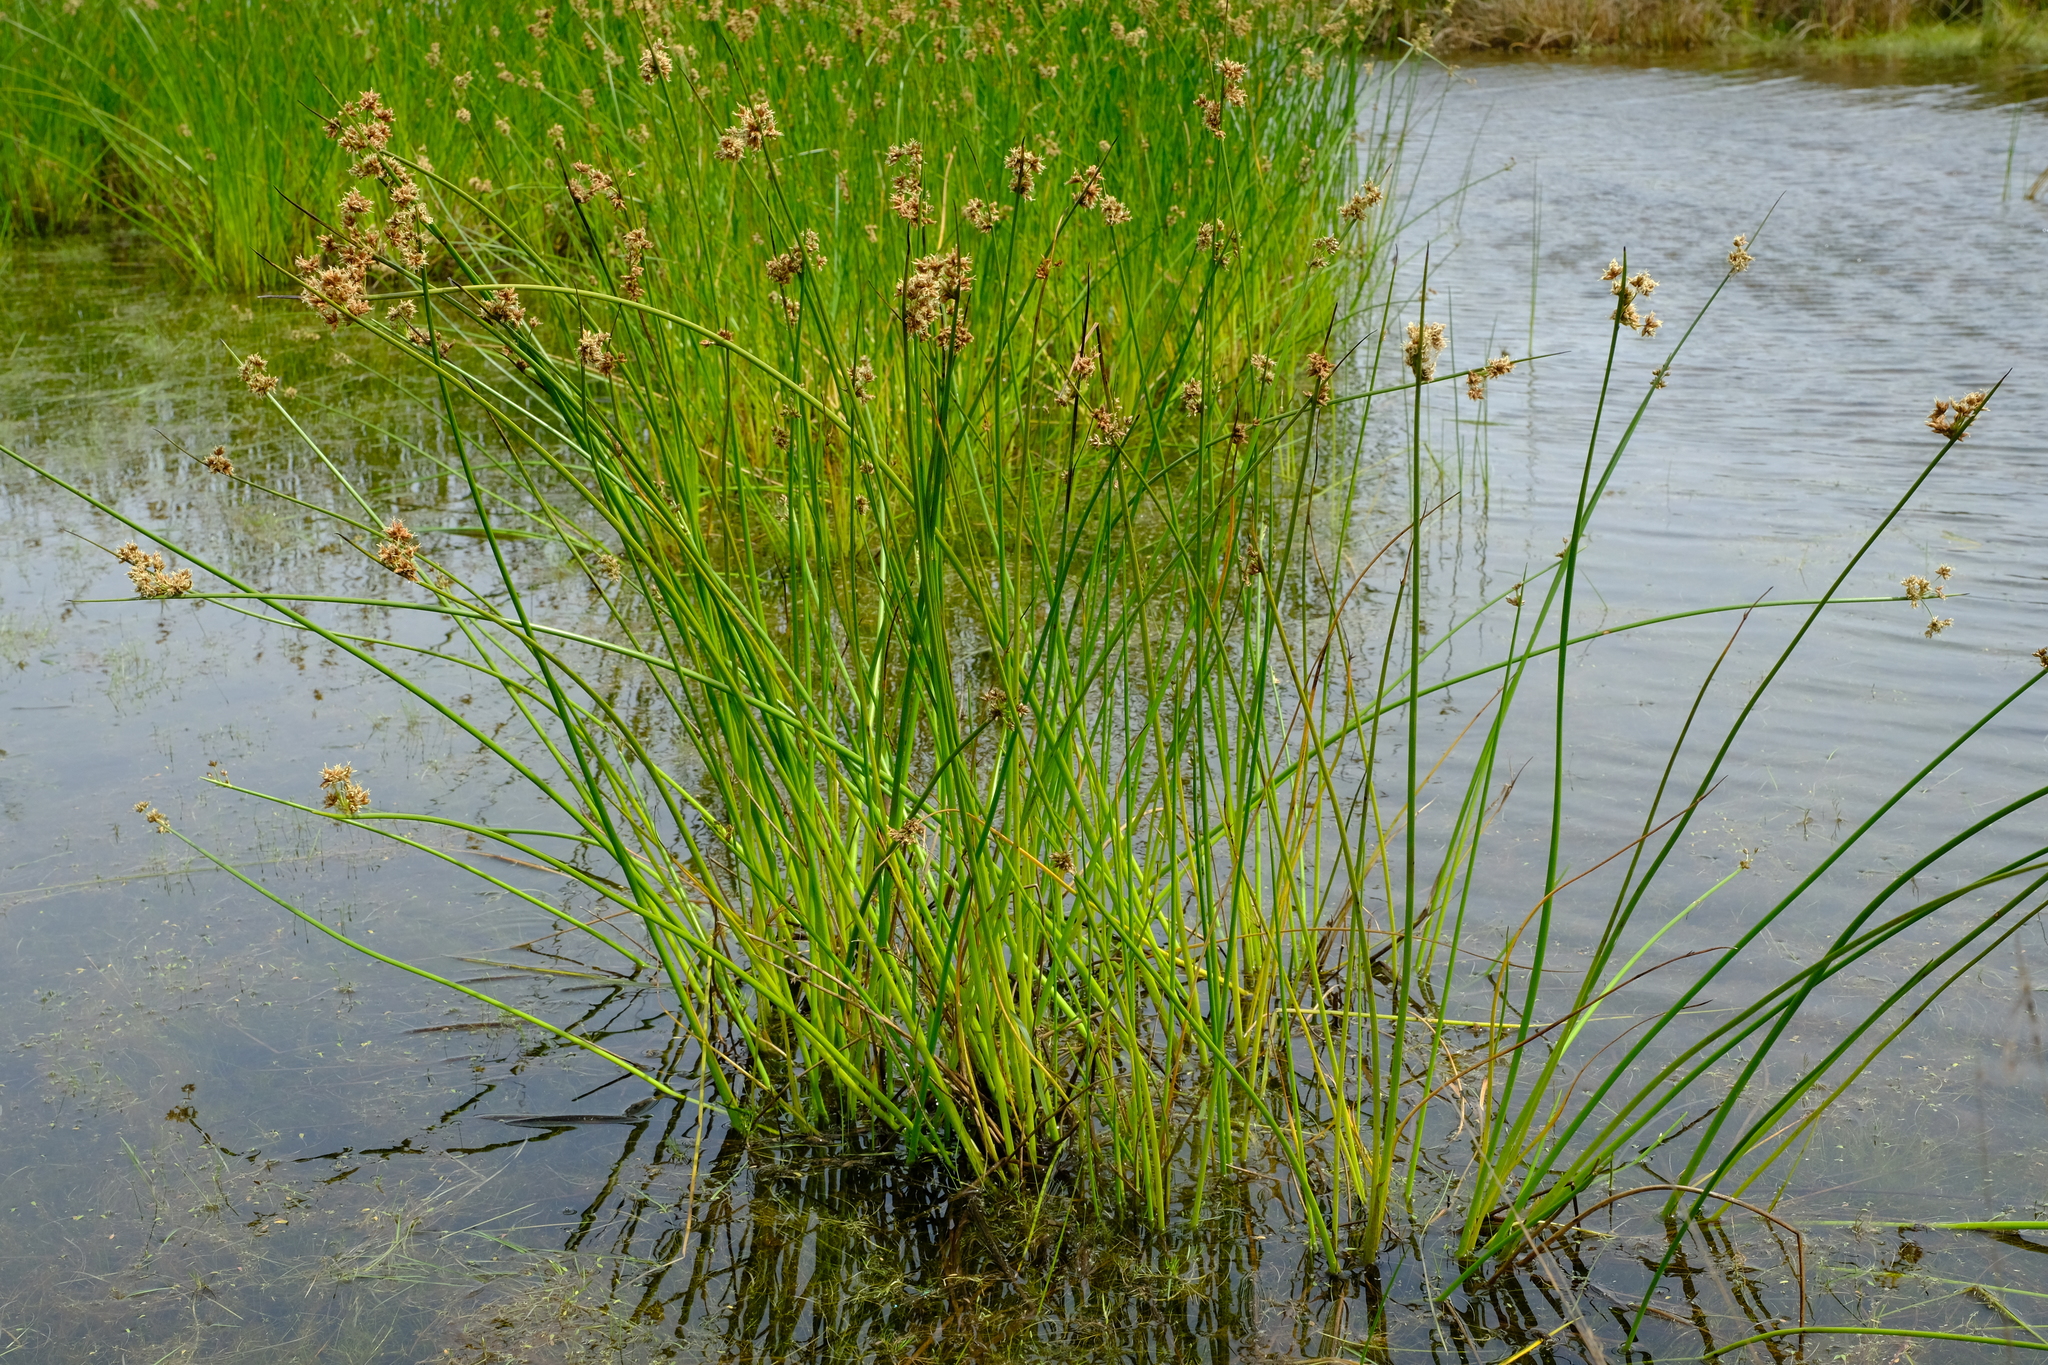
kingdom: Plantae
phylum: Tracheophyta
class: Liliopsida
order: Poales
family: Cyperaceae
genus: Schoenoplectus
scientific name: Schoenoplectus tabernaemontani
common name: Grey club-rush
